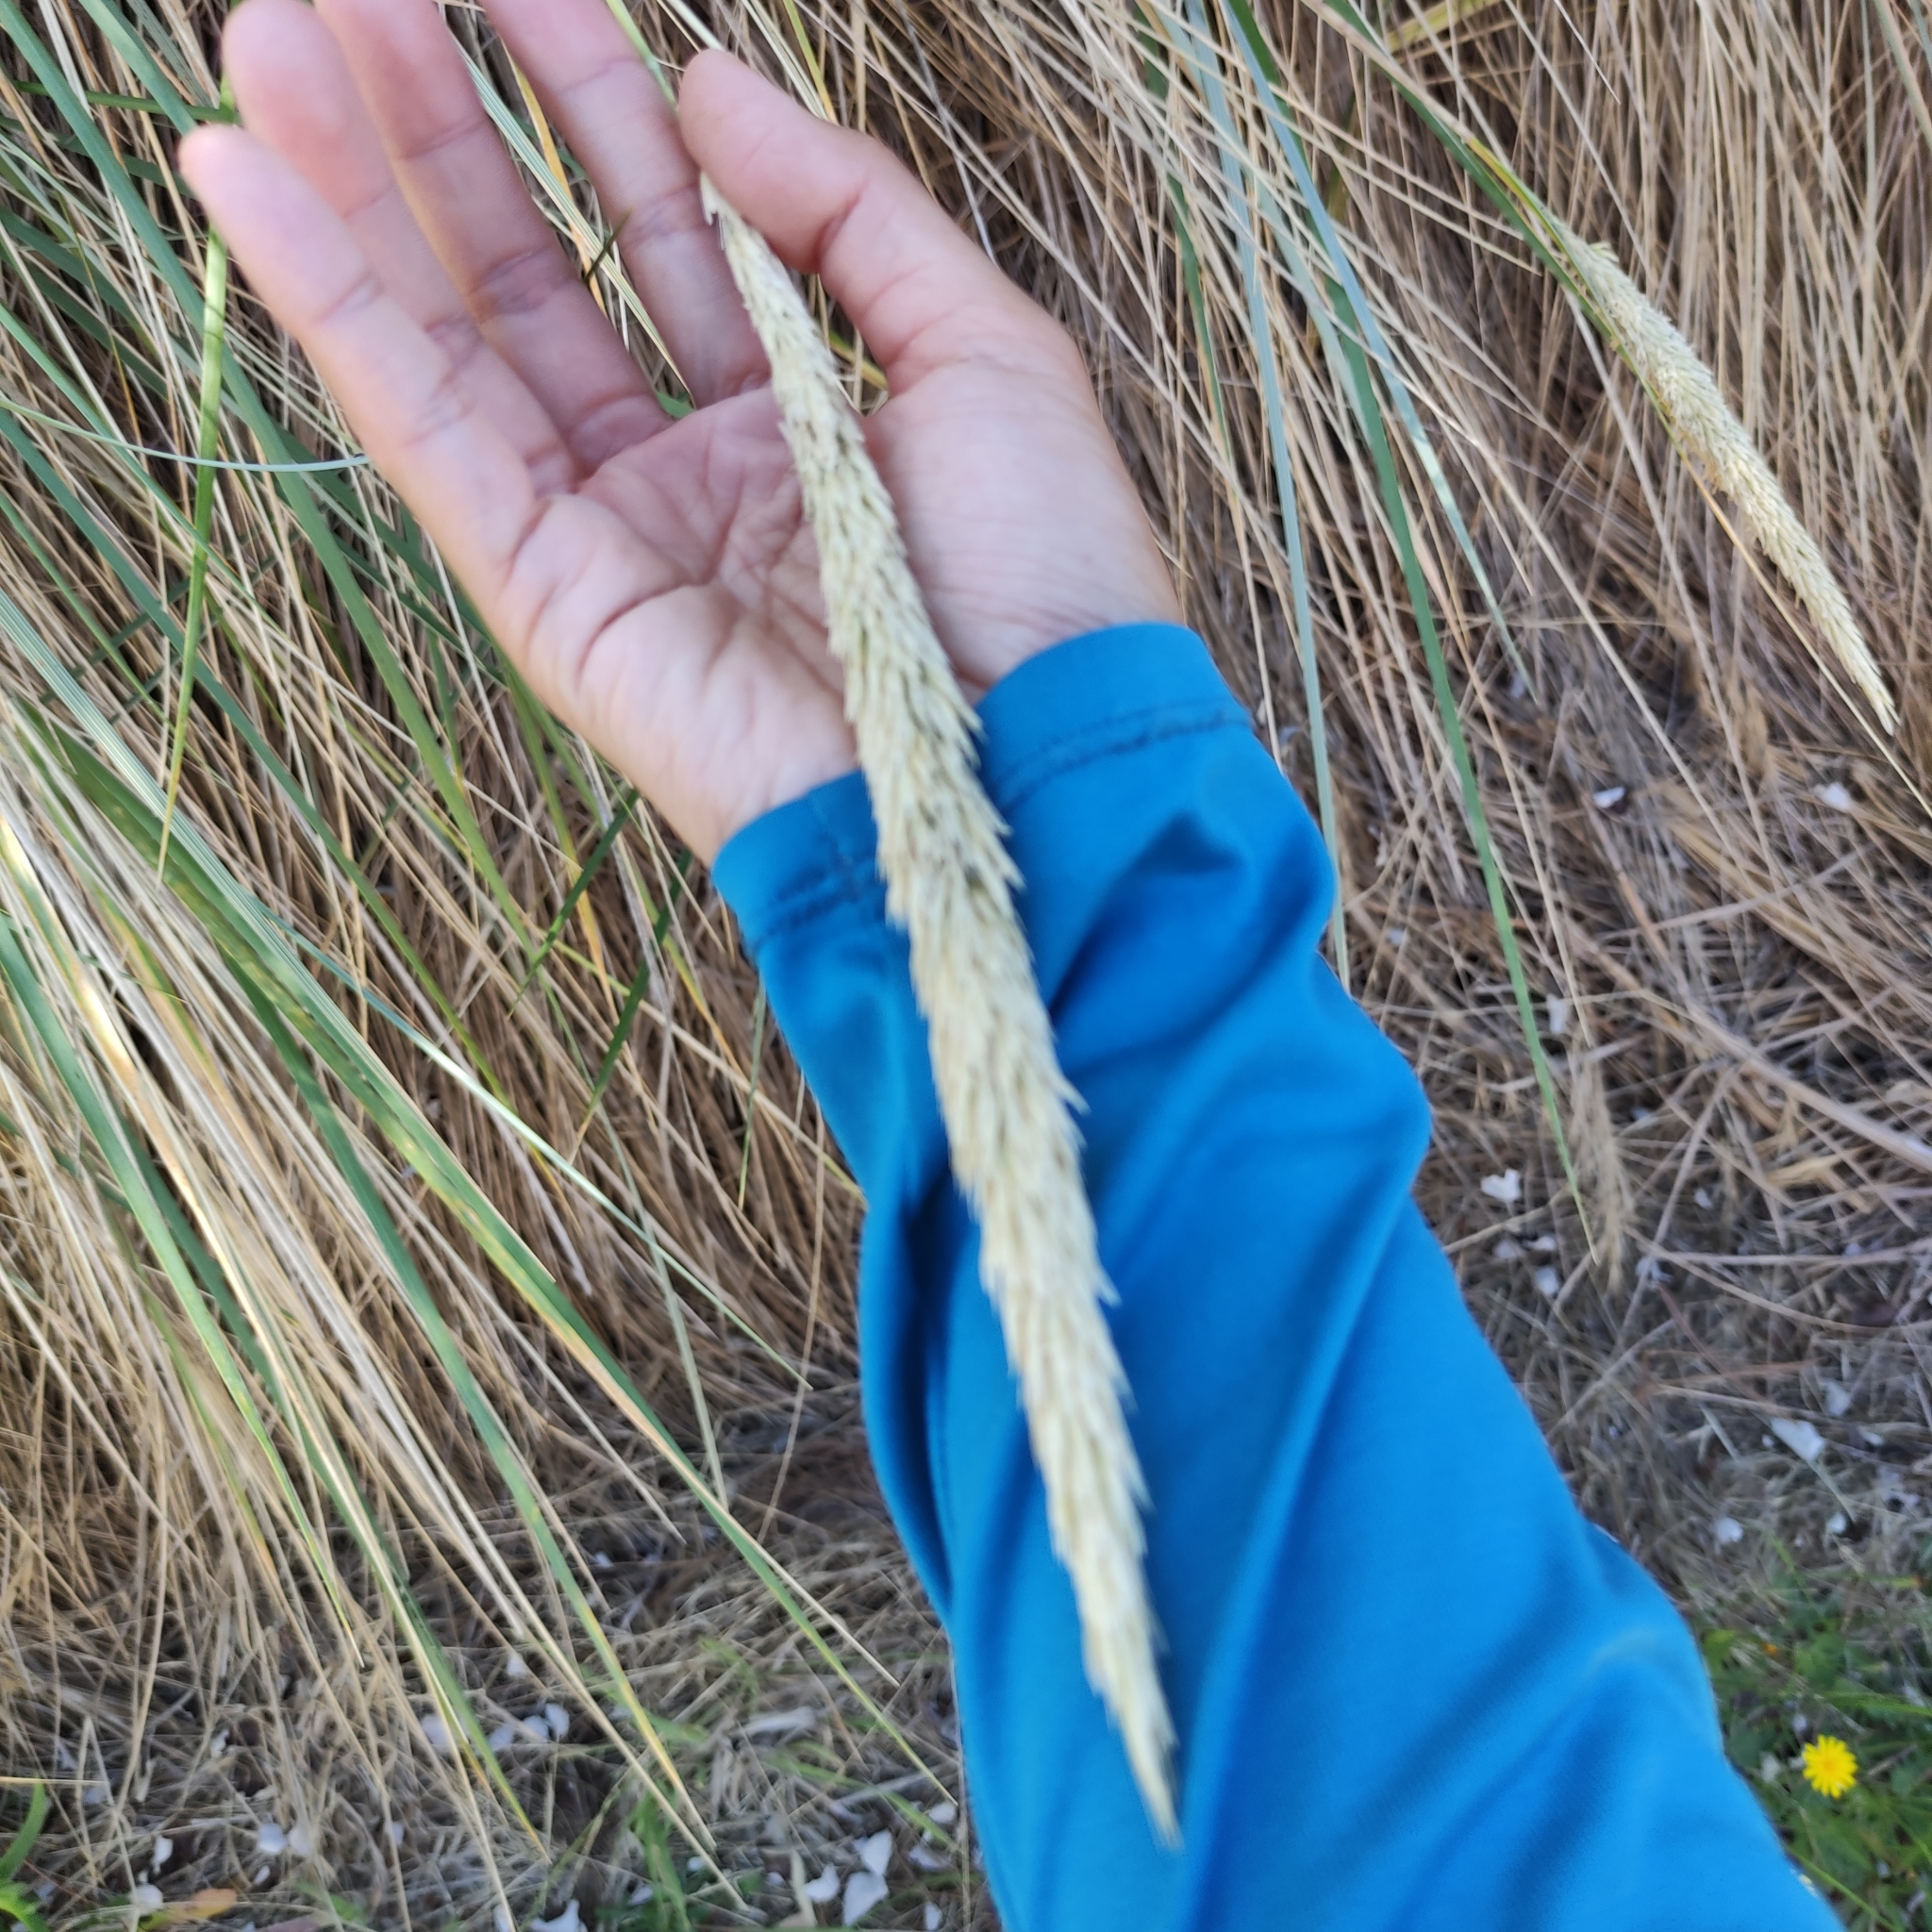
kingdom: Plantae
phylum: Tracheophyta
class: Liliopsida
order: Poales
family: Poaceae
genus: Calamagrostis
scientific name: Calamagrostis arenaria
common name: European beachgrass
